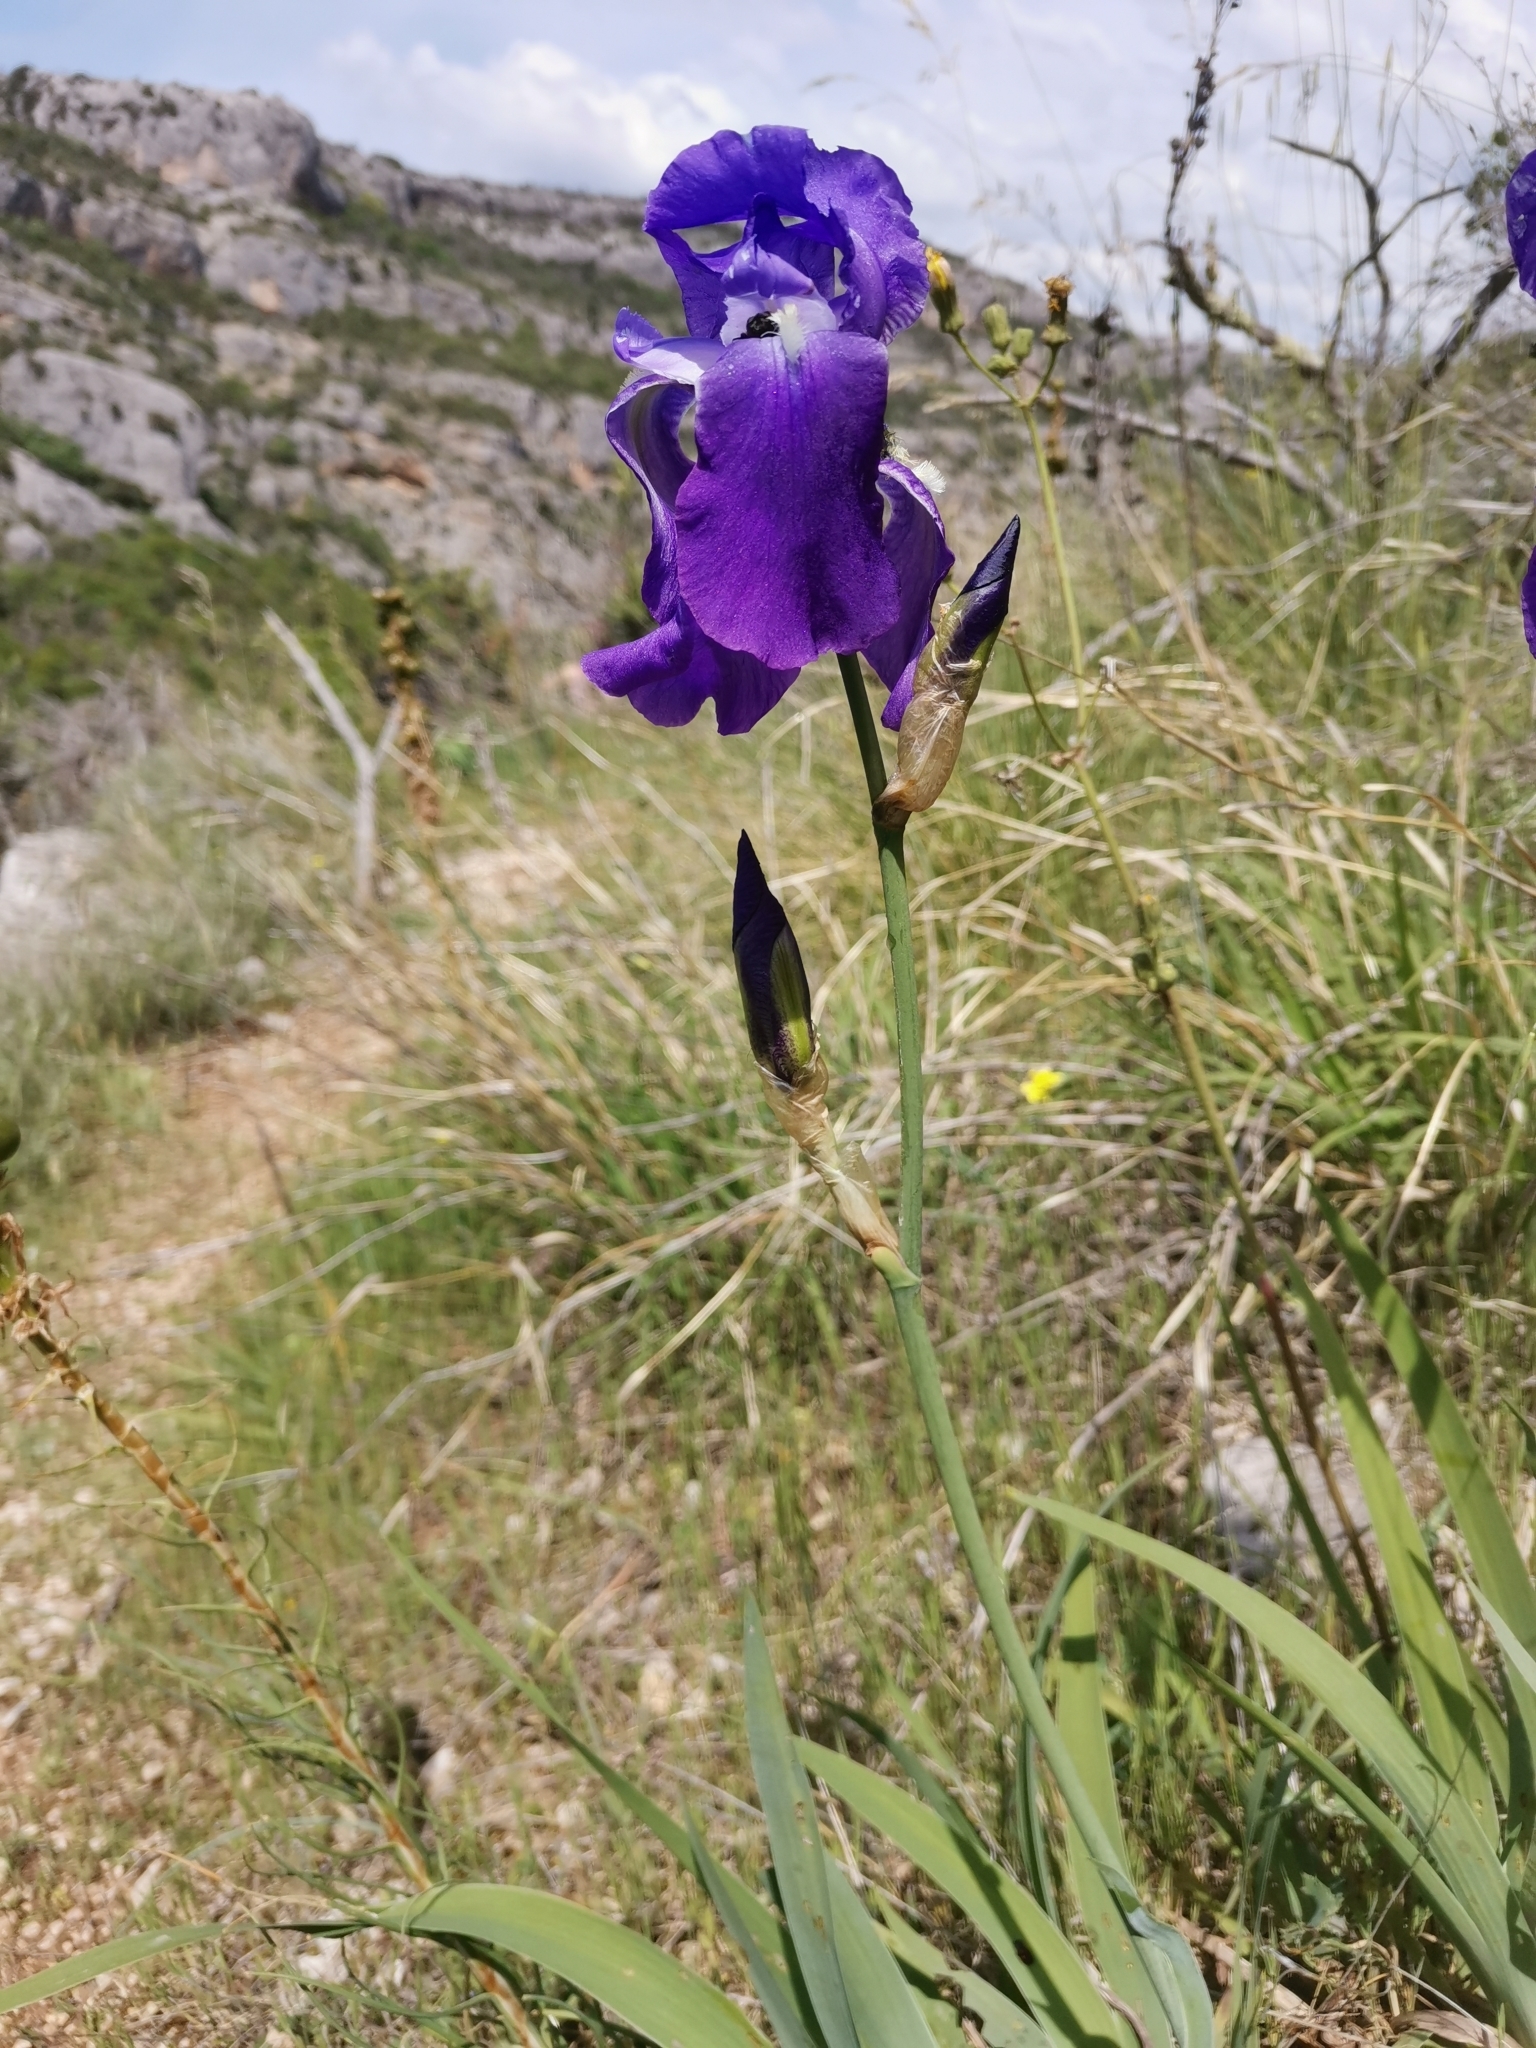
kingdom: Plantae
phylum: Tracheophyta
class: Liliopsida
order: Asparagales
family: Iridaceae
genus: Iris
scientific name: Iris pallida
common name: Sweet iris
